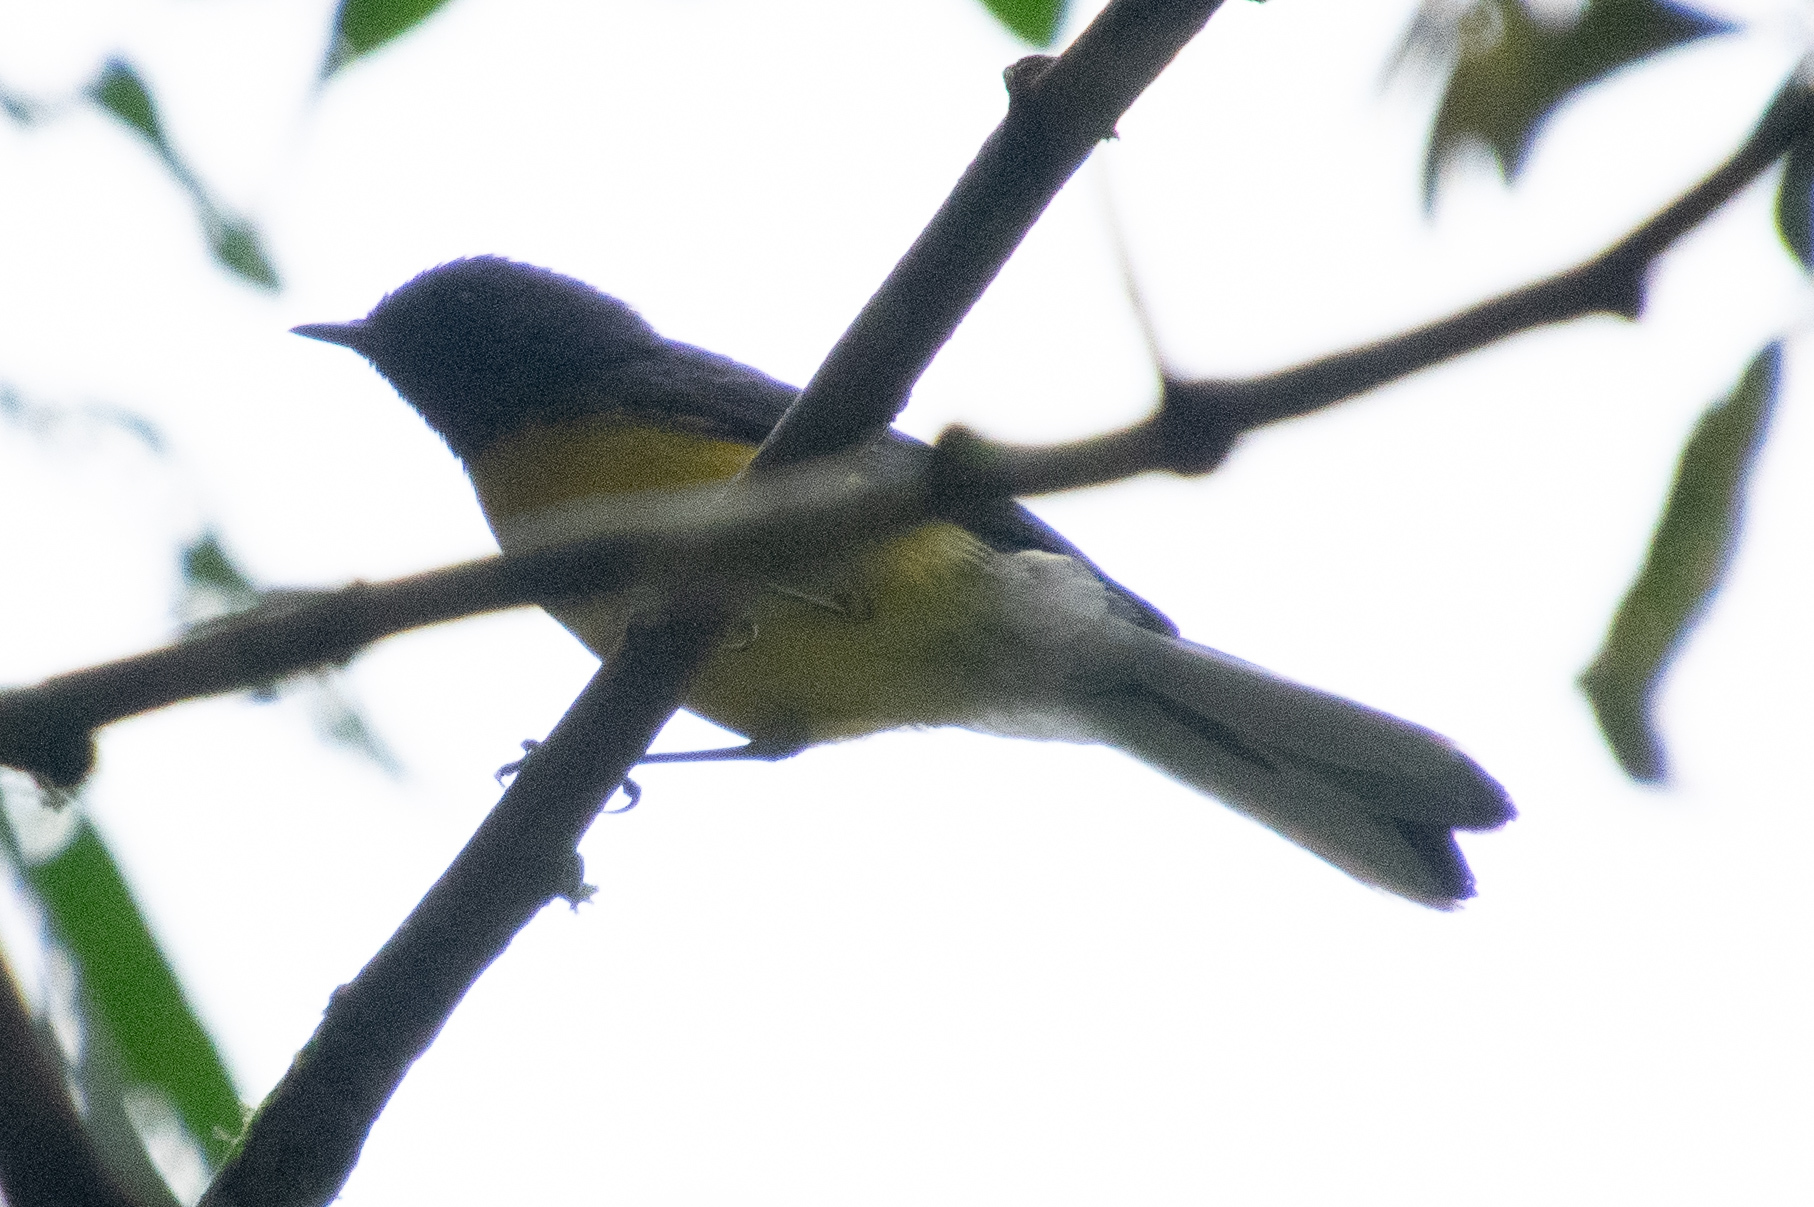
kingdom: Animalia
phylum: Chordata
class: Aves
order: Passeriformes
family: Parulidae
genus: Myioborus
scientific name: Myioborus miniatus
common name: Slate-throated redstart
